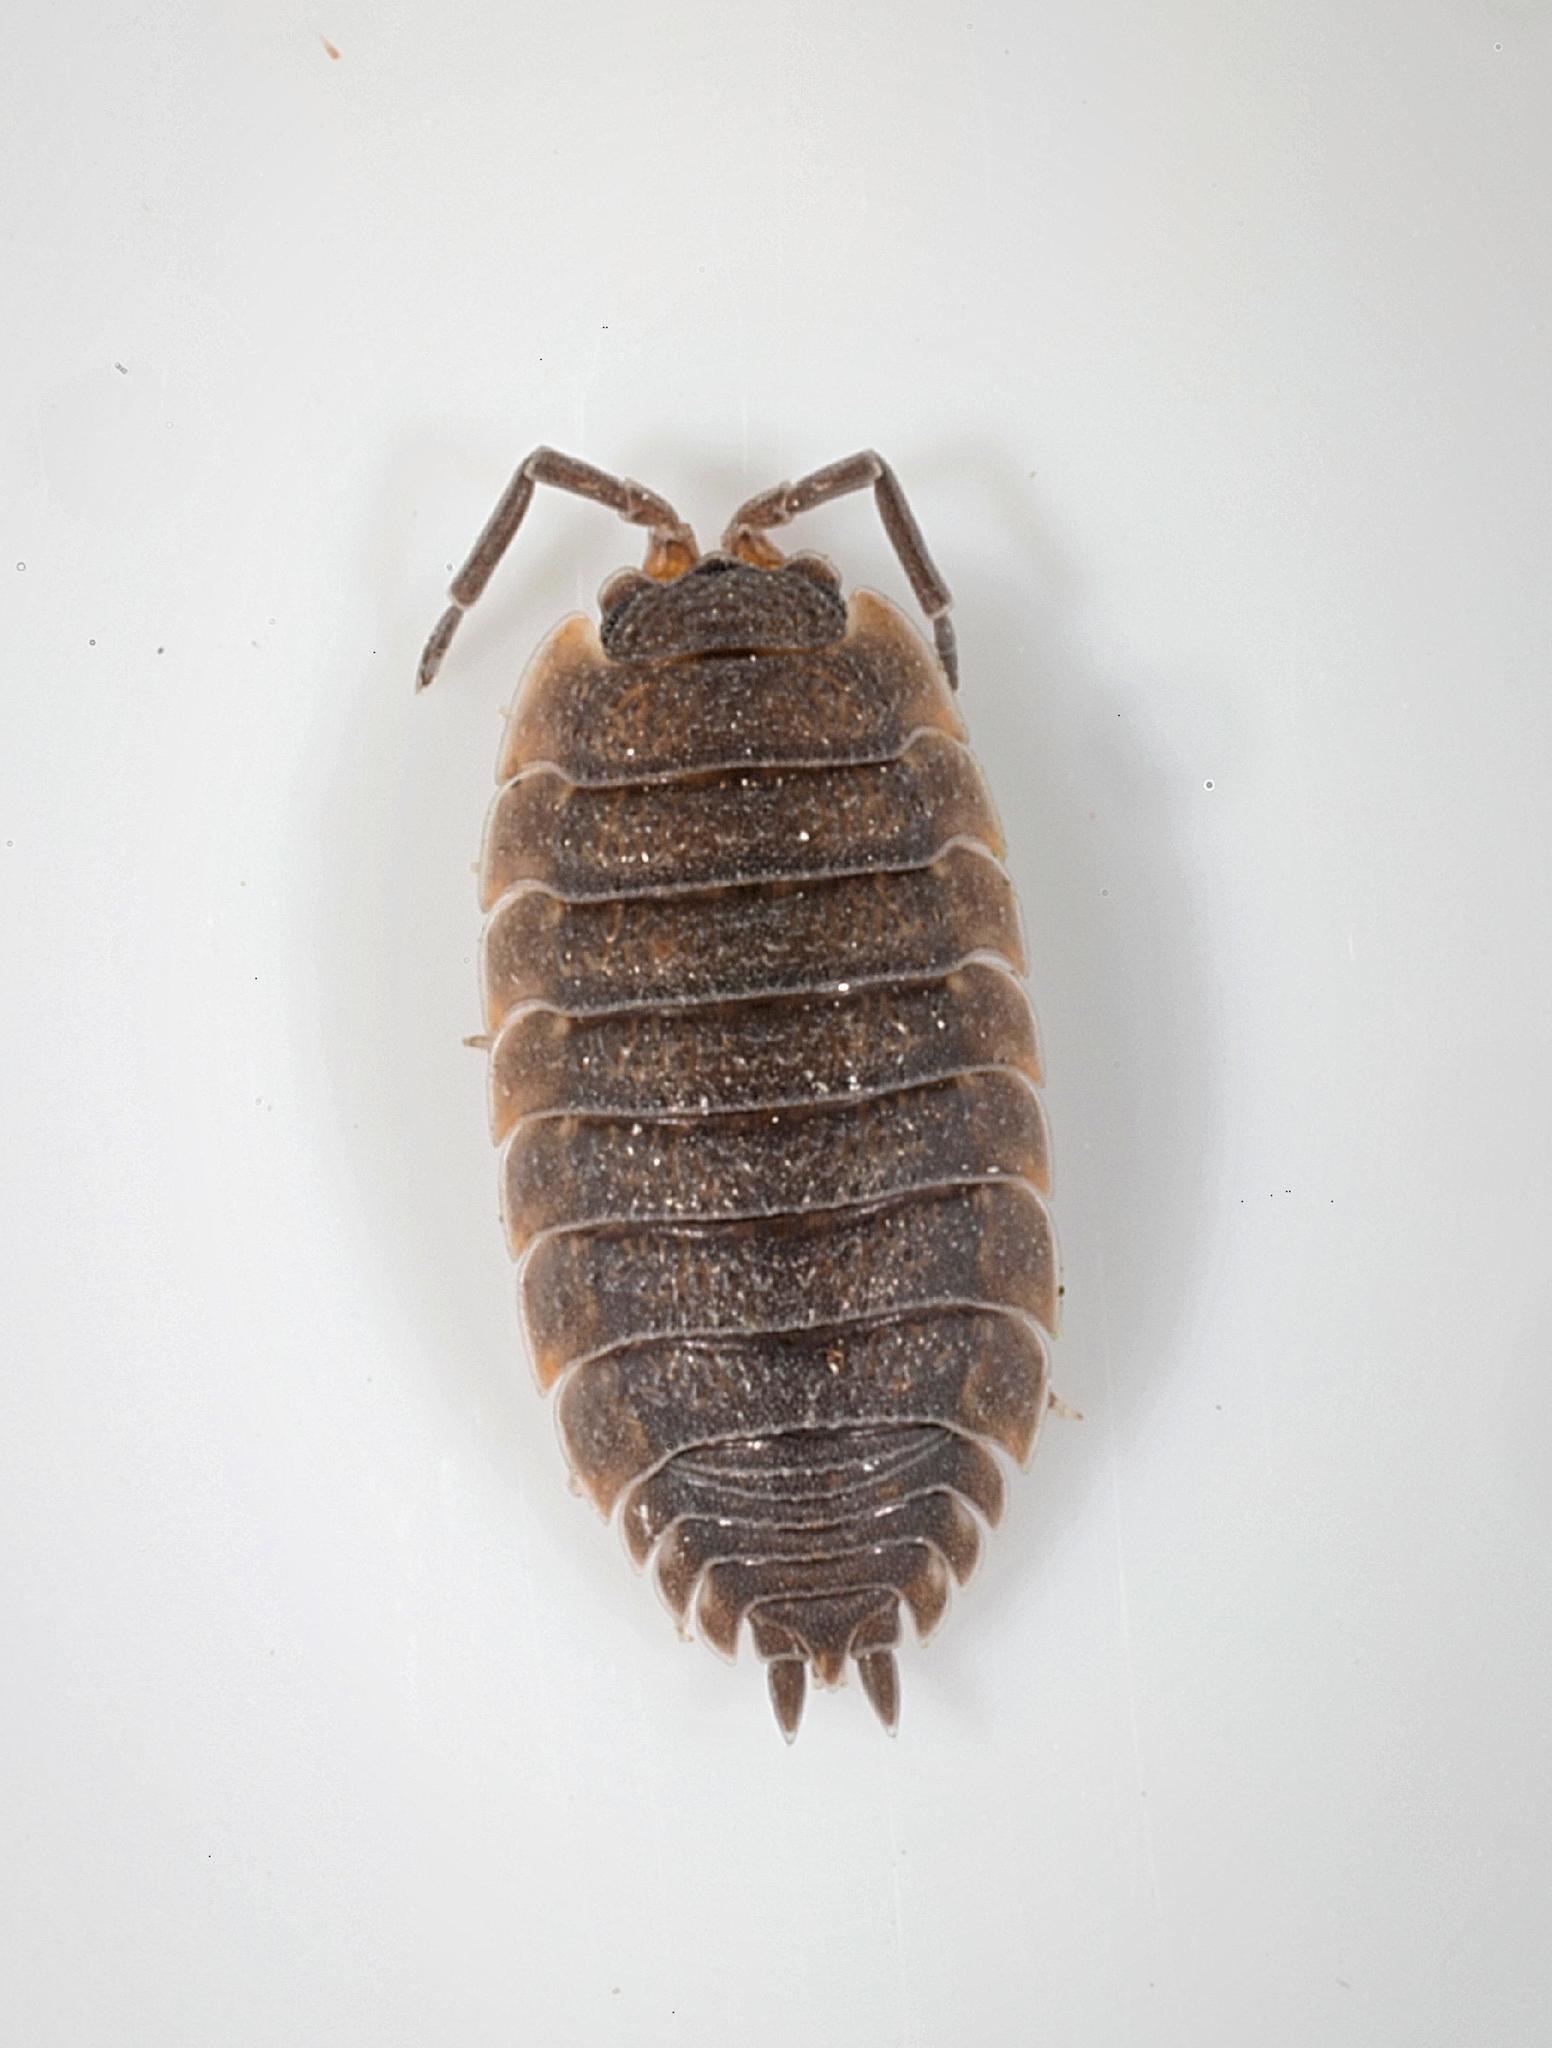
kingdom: Animalia
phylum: Arthropoda
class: Malacostraca
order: Isopoda
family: Porcellionidae
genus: Porcellio
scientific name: Porcellio scaber
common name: Common rough woodlouse
